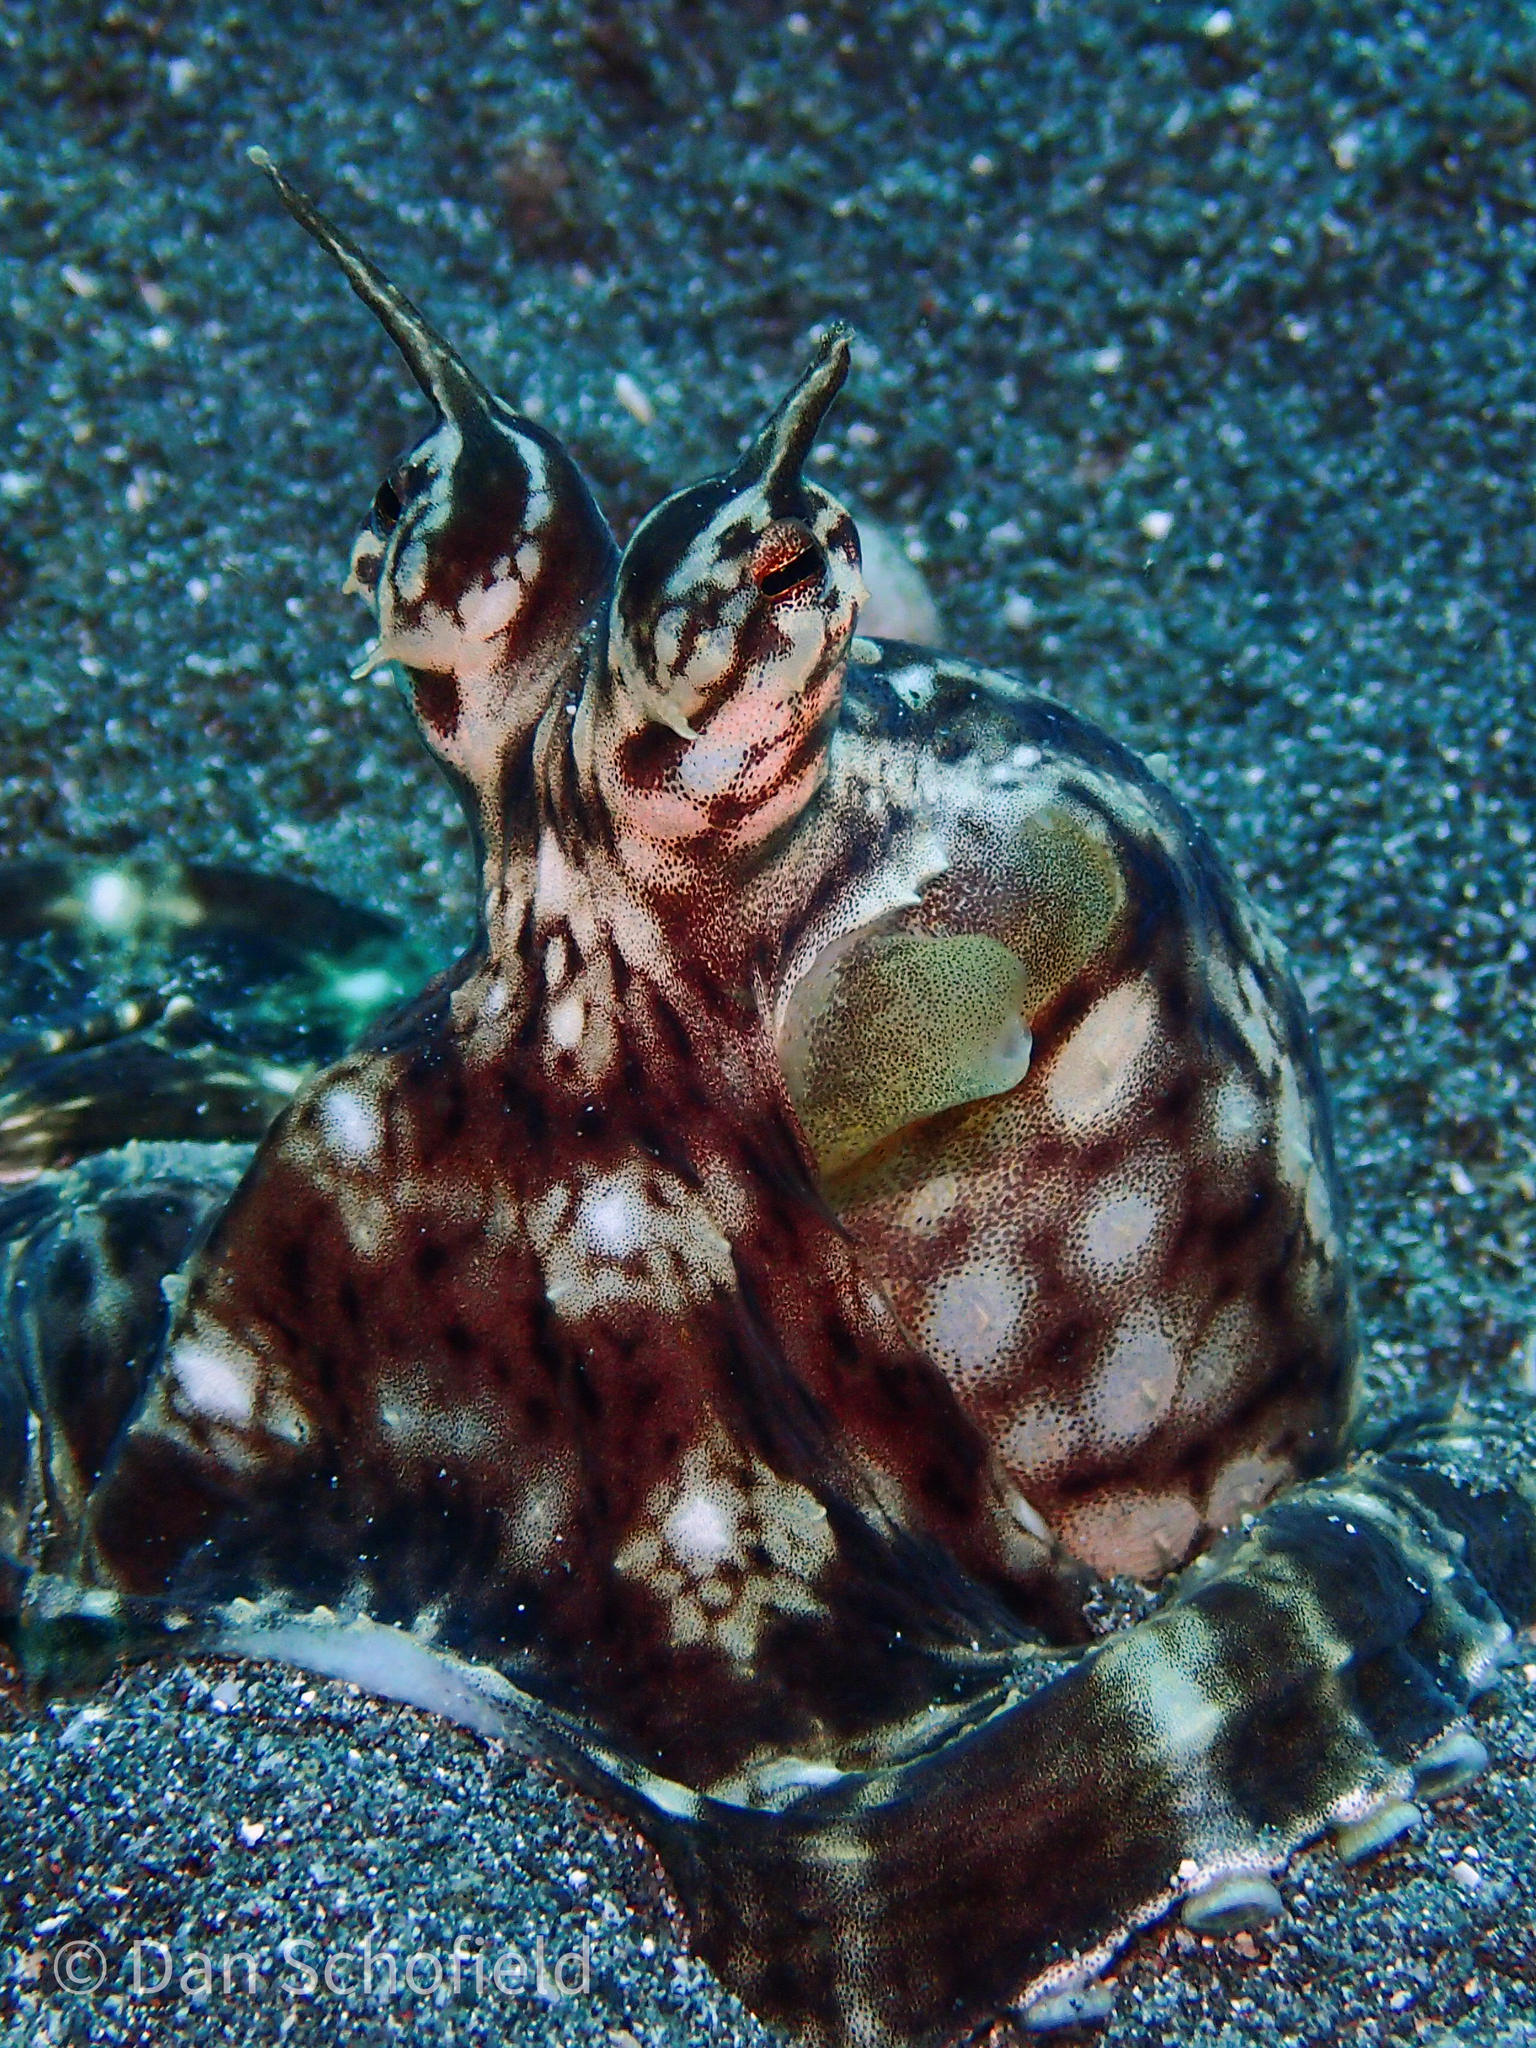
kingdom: Animalia
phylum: Mollusca
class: Cephalopoda
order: Octopoda
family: Octopodidae
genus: Thaumoctopus
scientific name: Thaumoctopus mimicus
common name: Mimic octopus
